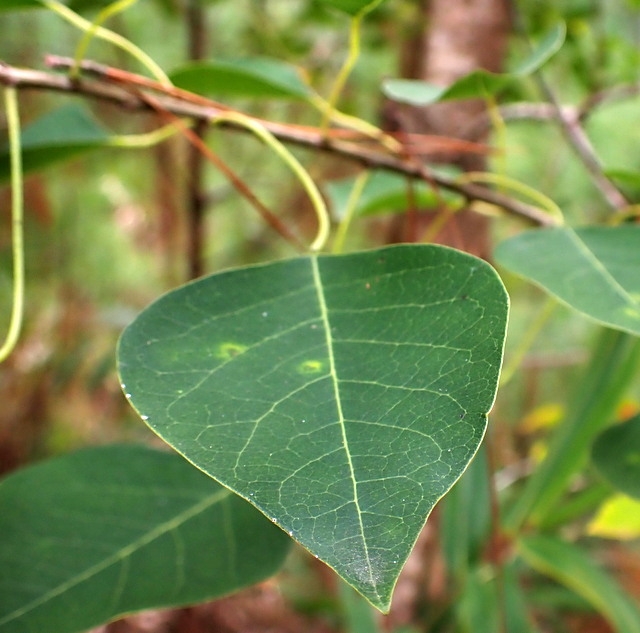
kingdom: Plantae
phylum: Tracheophyta
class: Magnoliopsida
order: Malpighiales
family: Euphorbiaceae
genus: Triadica
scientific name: Triadica sebifera
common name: Chinese tallow
